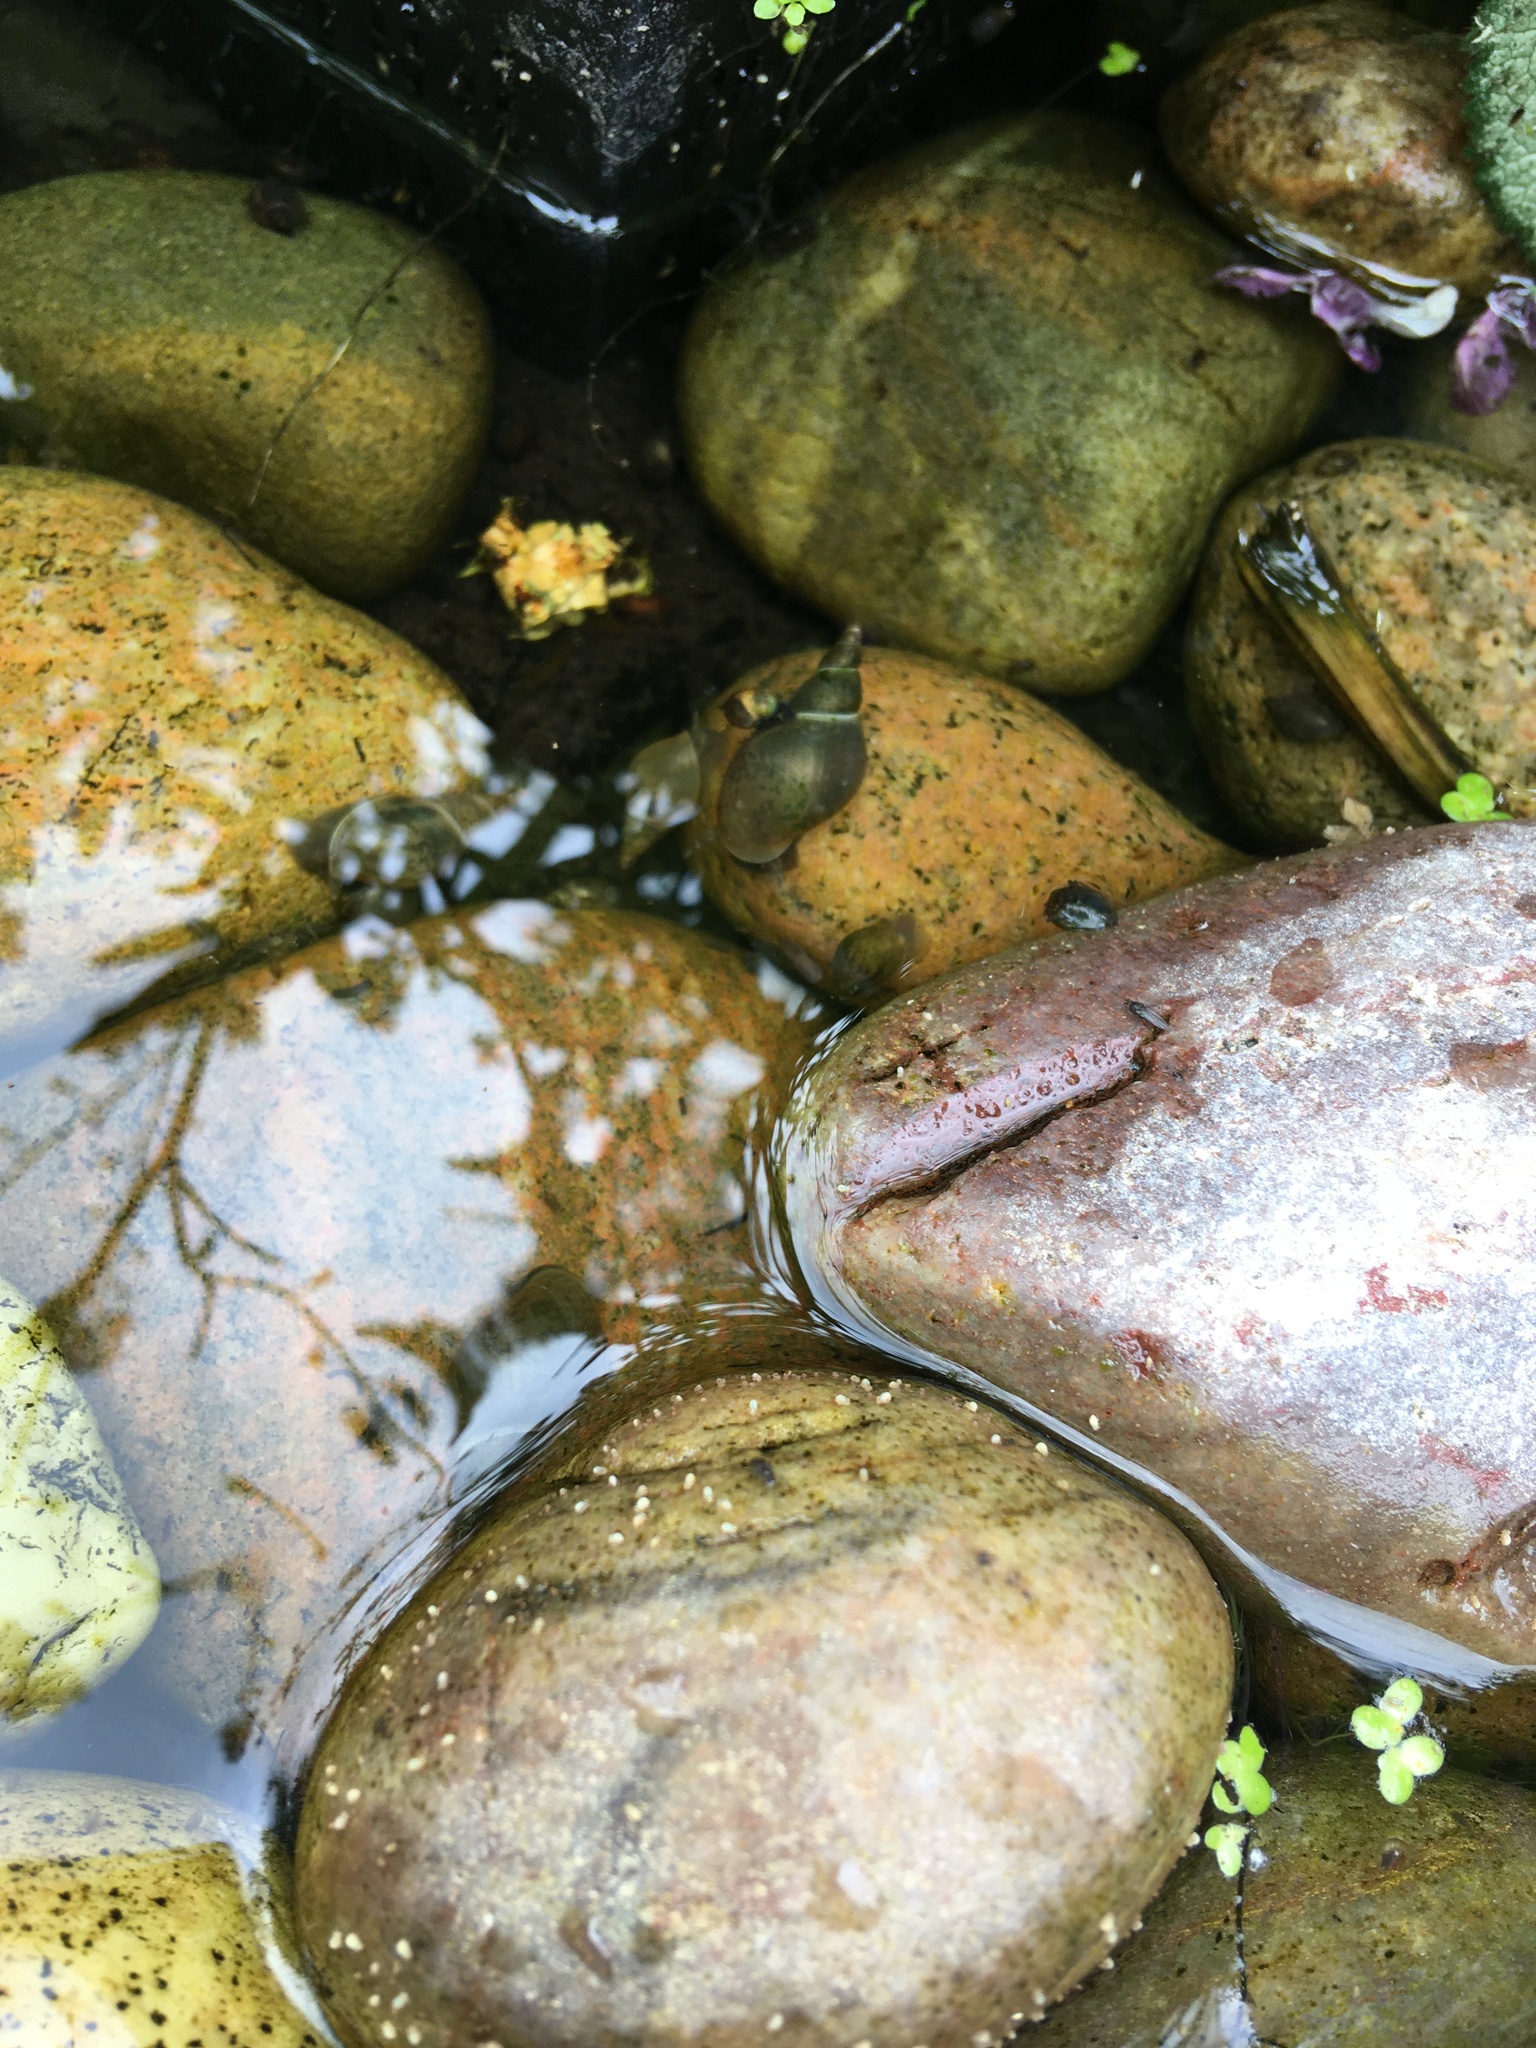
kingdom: Animalia
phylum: Mollusca
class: Gastropoda
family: Lymnaeidae
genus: Lymnaea
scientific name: Lymnaea stagnalis
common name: Great pond snail
